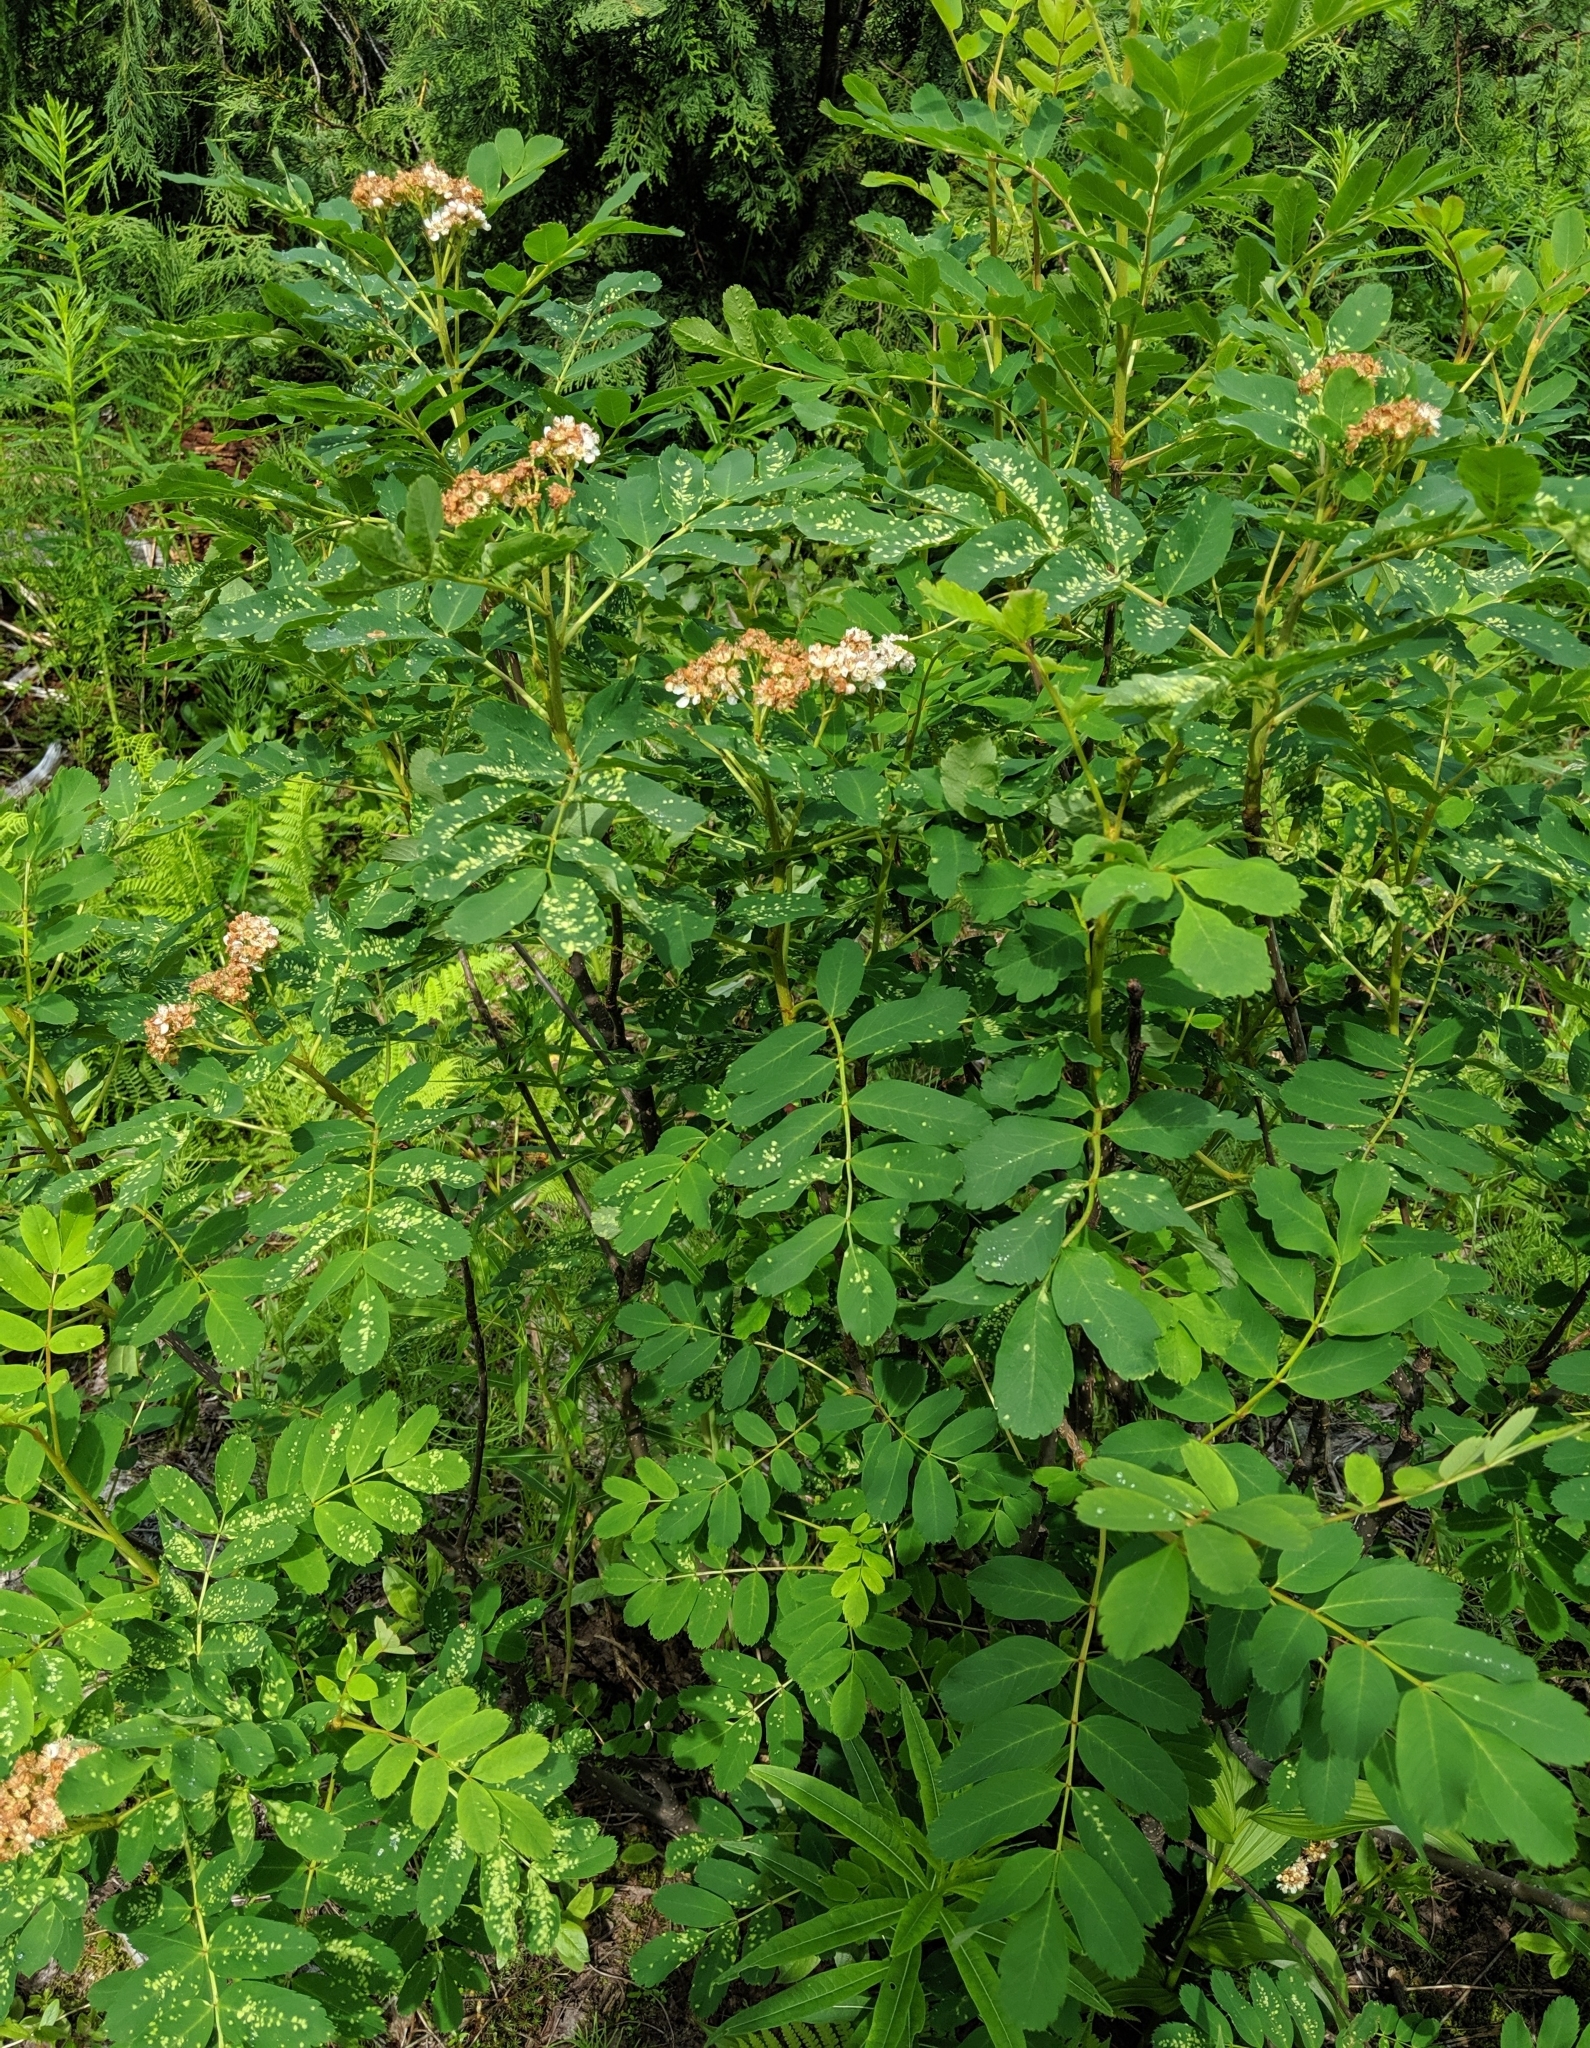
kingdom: Plantae
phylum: Tracheophyta
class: Magnoliopsida
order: Rosales
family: Rosaceae
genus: Sorbus
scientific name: Sorbus sitchensis
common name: Sitka mountain-ash
